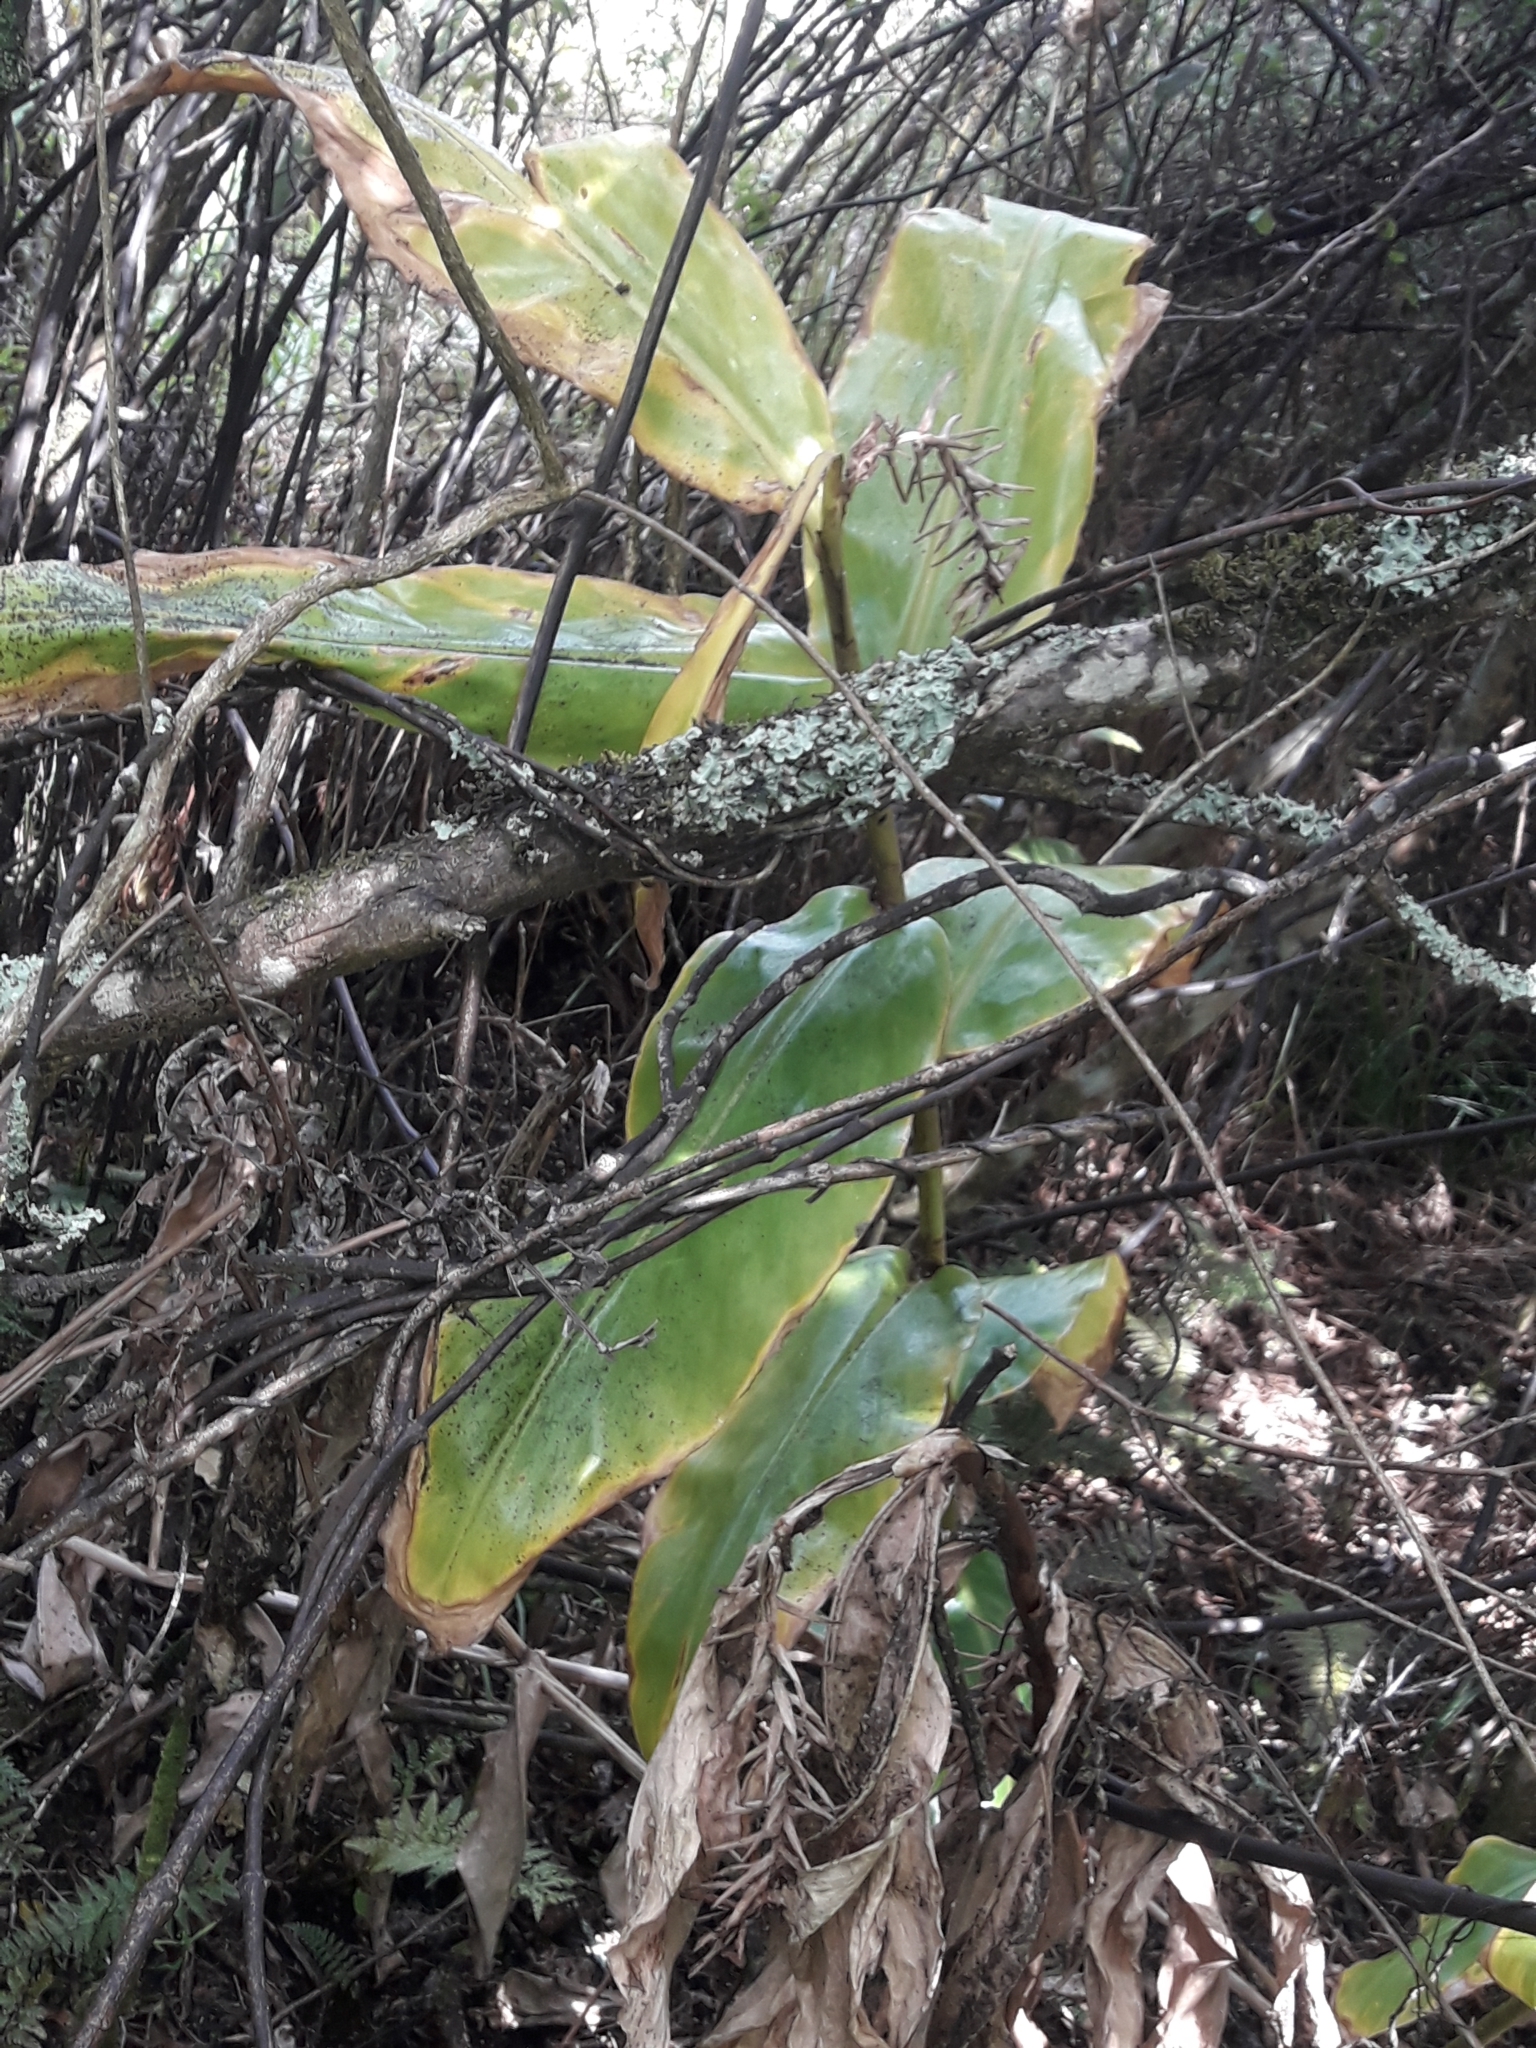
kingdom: Plantae
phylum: Tracheophyta
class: Liliopsida
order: Zingiberales
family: Zingiberaceae
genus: Hedychium
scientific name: Hedychium gardnerianum
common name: Himalayan ginger
